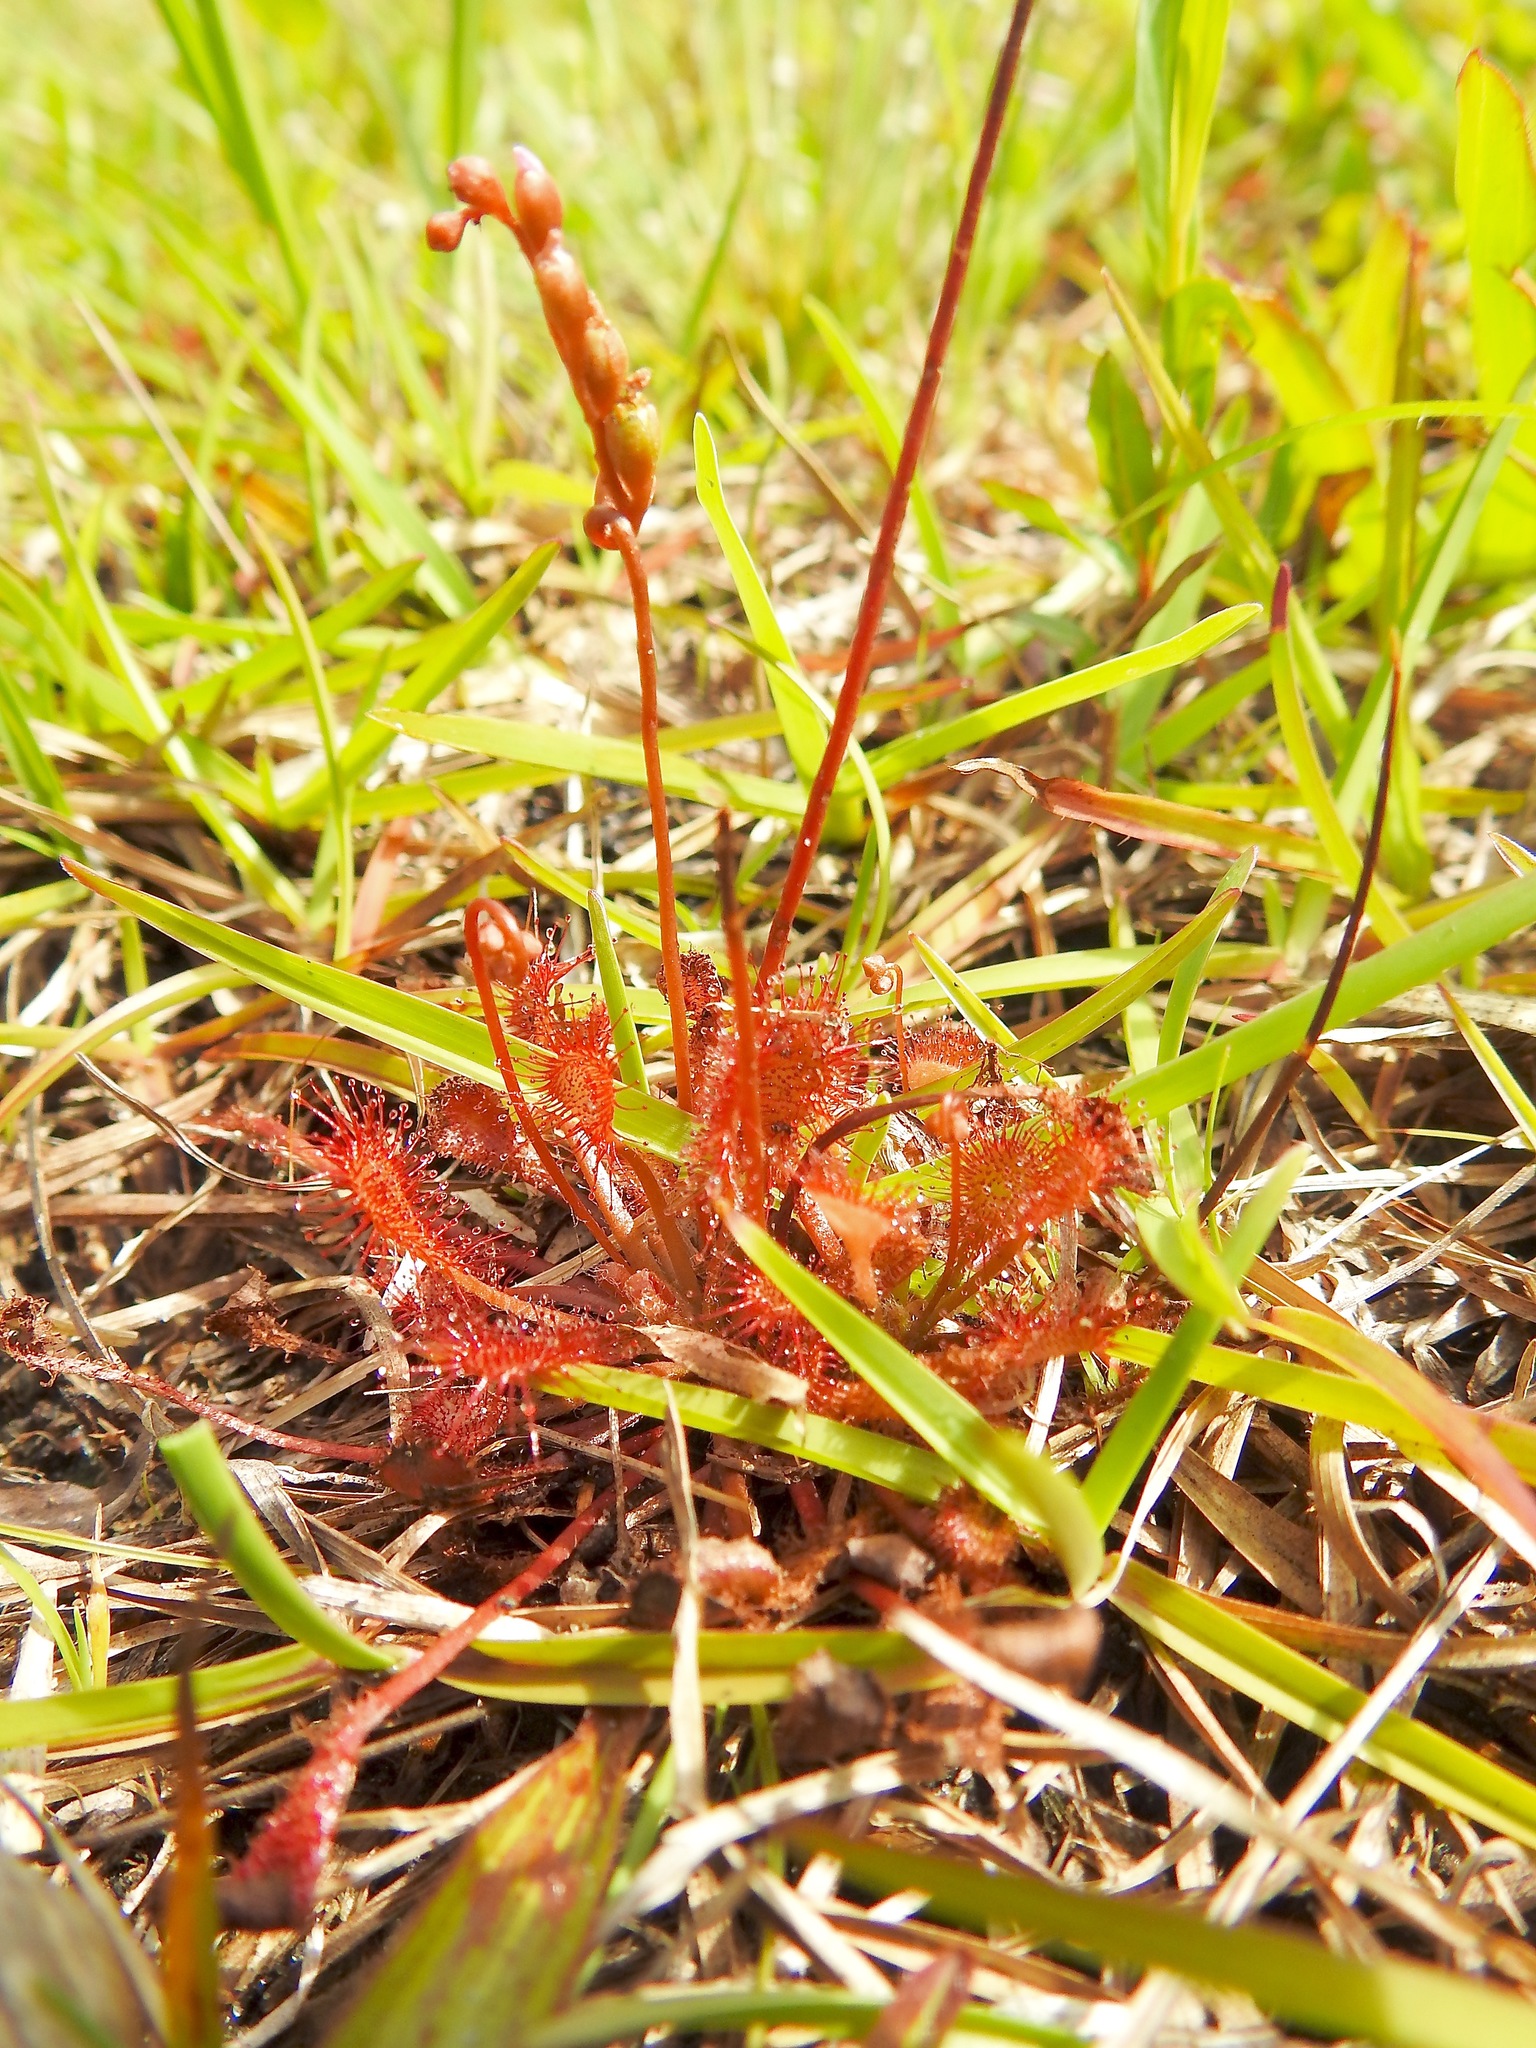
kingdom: Plantae
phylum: Tracheophyta
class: Magnoliopsida
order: Caryophyllales
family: Droseraceae
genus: Drosera
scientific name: Drosera capillaris
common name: Pink sundew
